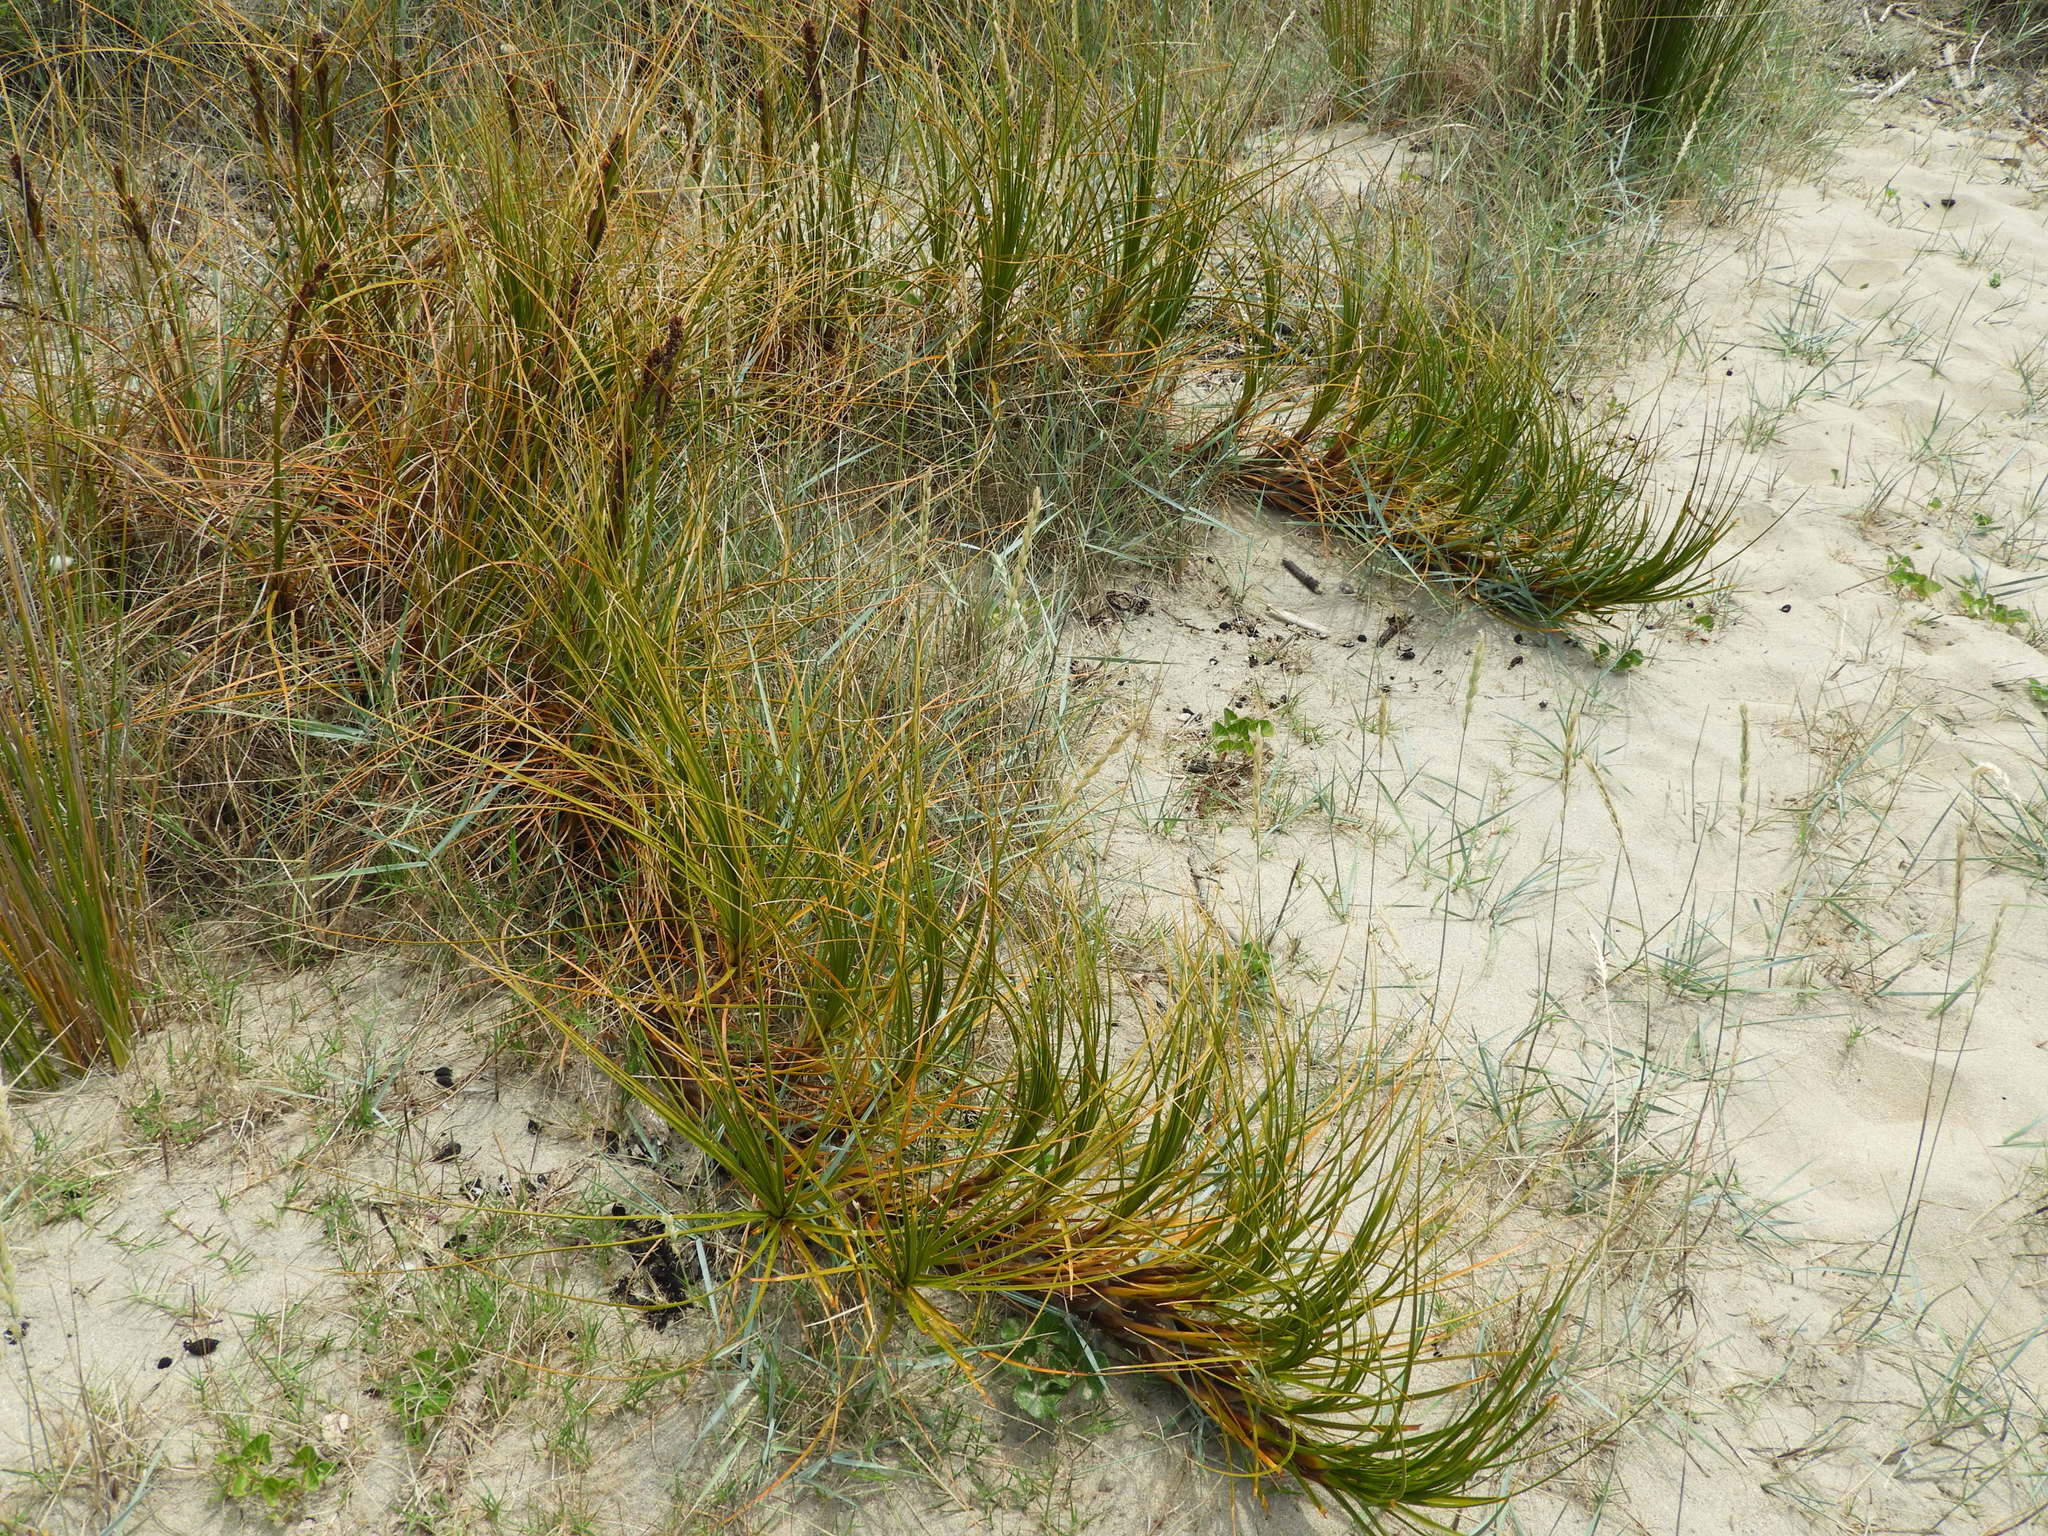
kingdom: Plantae
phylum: Tracheophyta
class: Liliopsida
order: Poales
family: Cyperaceae
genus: Ficinia
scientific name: Ficinia spiralis
